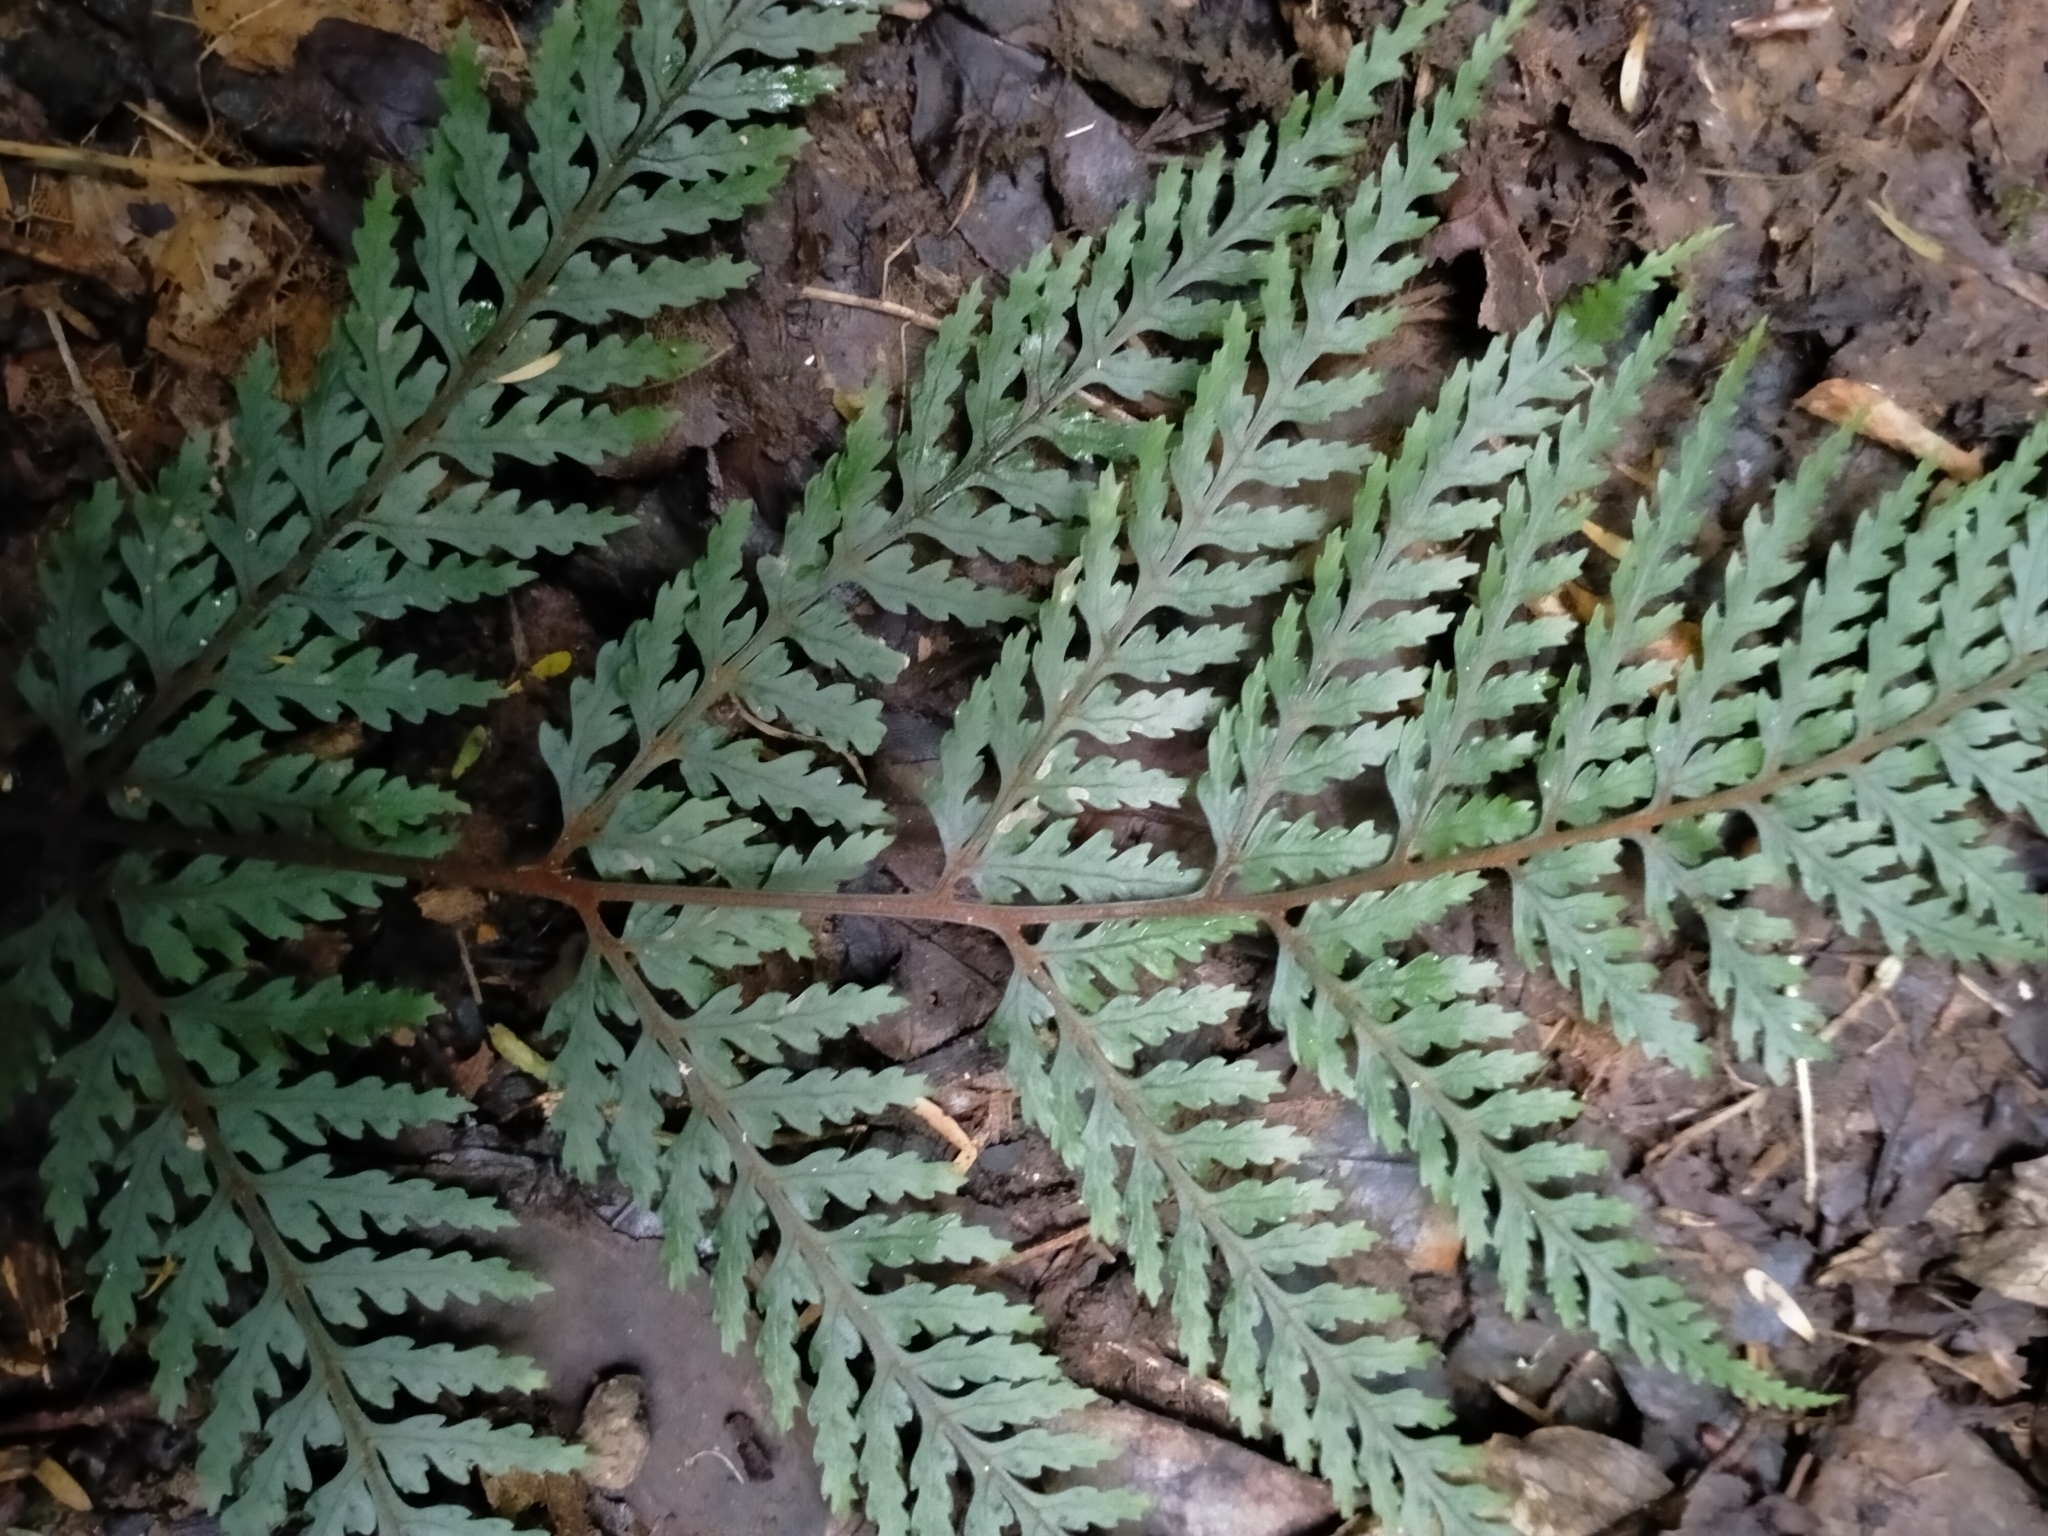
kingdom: Plantae
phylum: Tracheophyta
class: Polypodiopsida
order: Polypodiales
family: Dryopteridaceae
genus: Parapolystichum
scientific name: Parapolystichum glabellum
